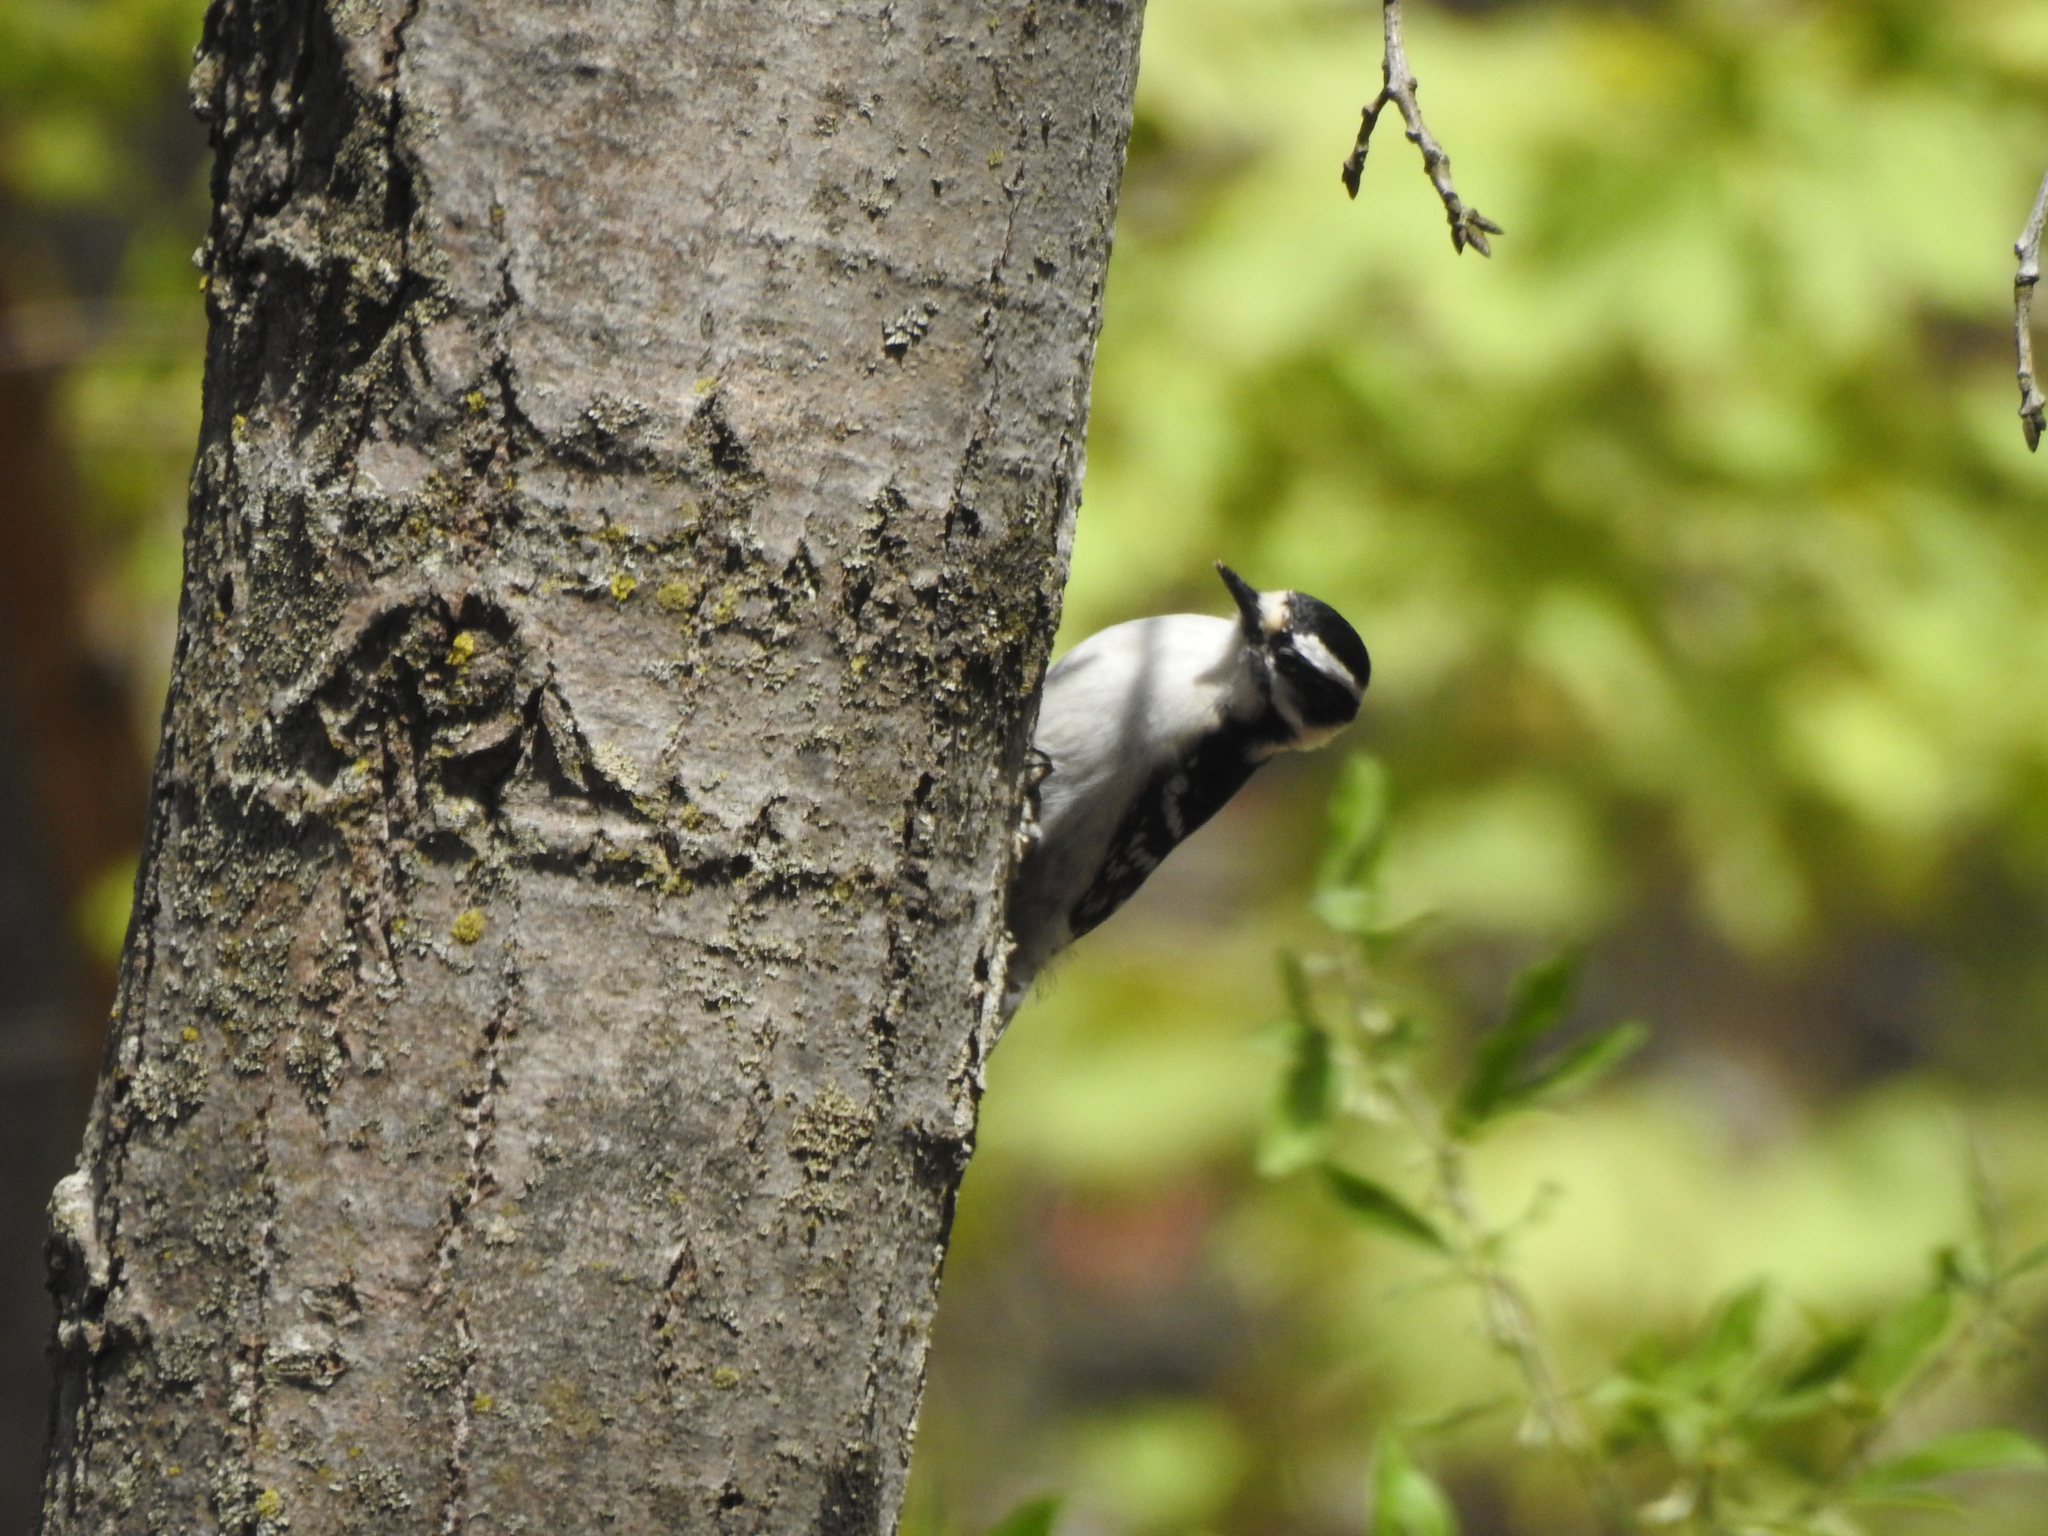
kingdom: Animalia
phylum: Chordata
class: Aves
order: Piciformes
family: Picidae
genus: Dryobates
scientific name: Dryobates pubescens
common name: Downy woodpecker
